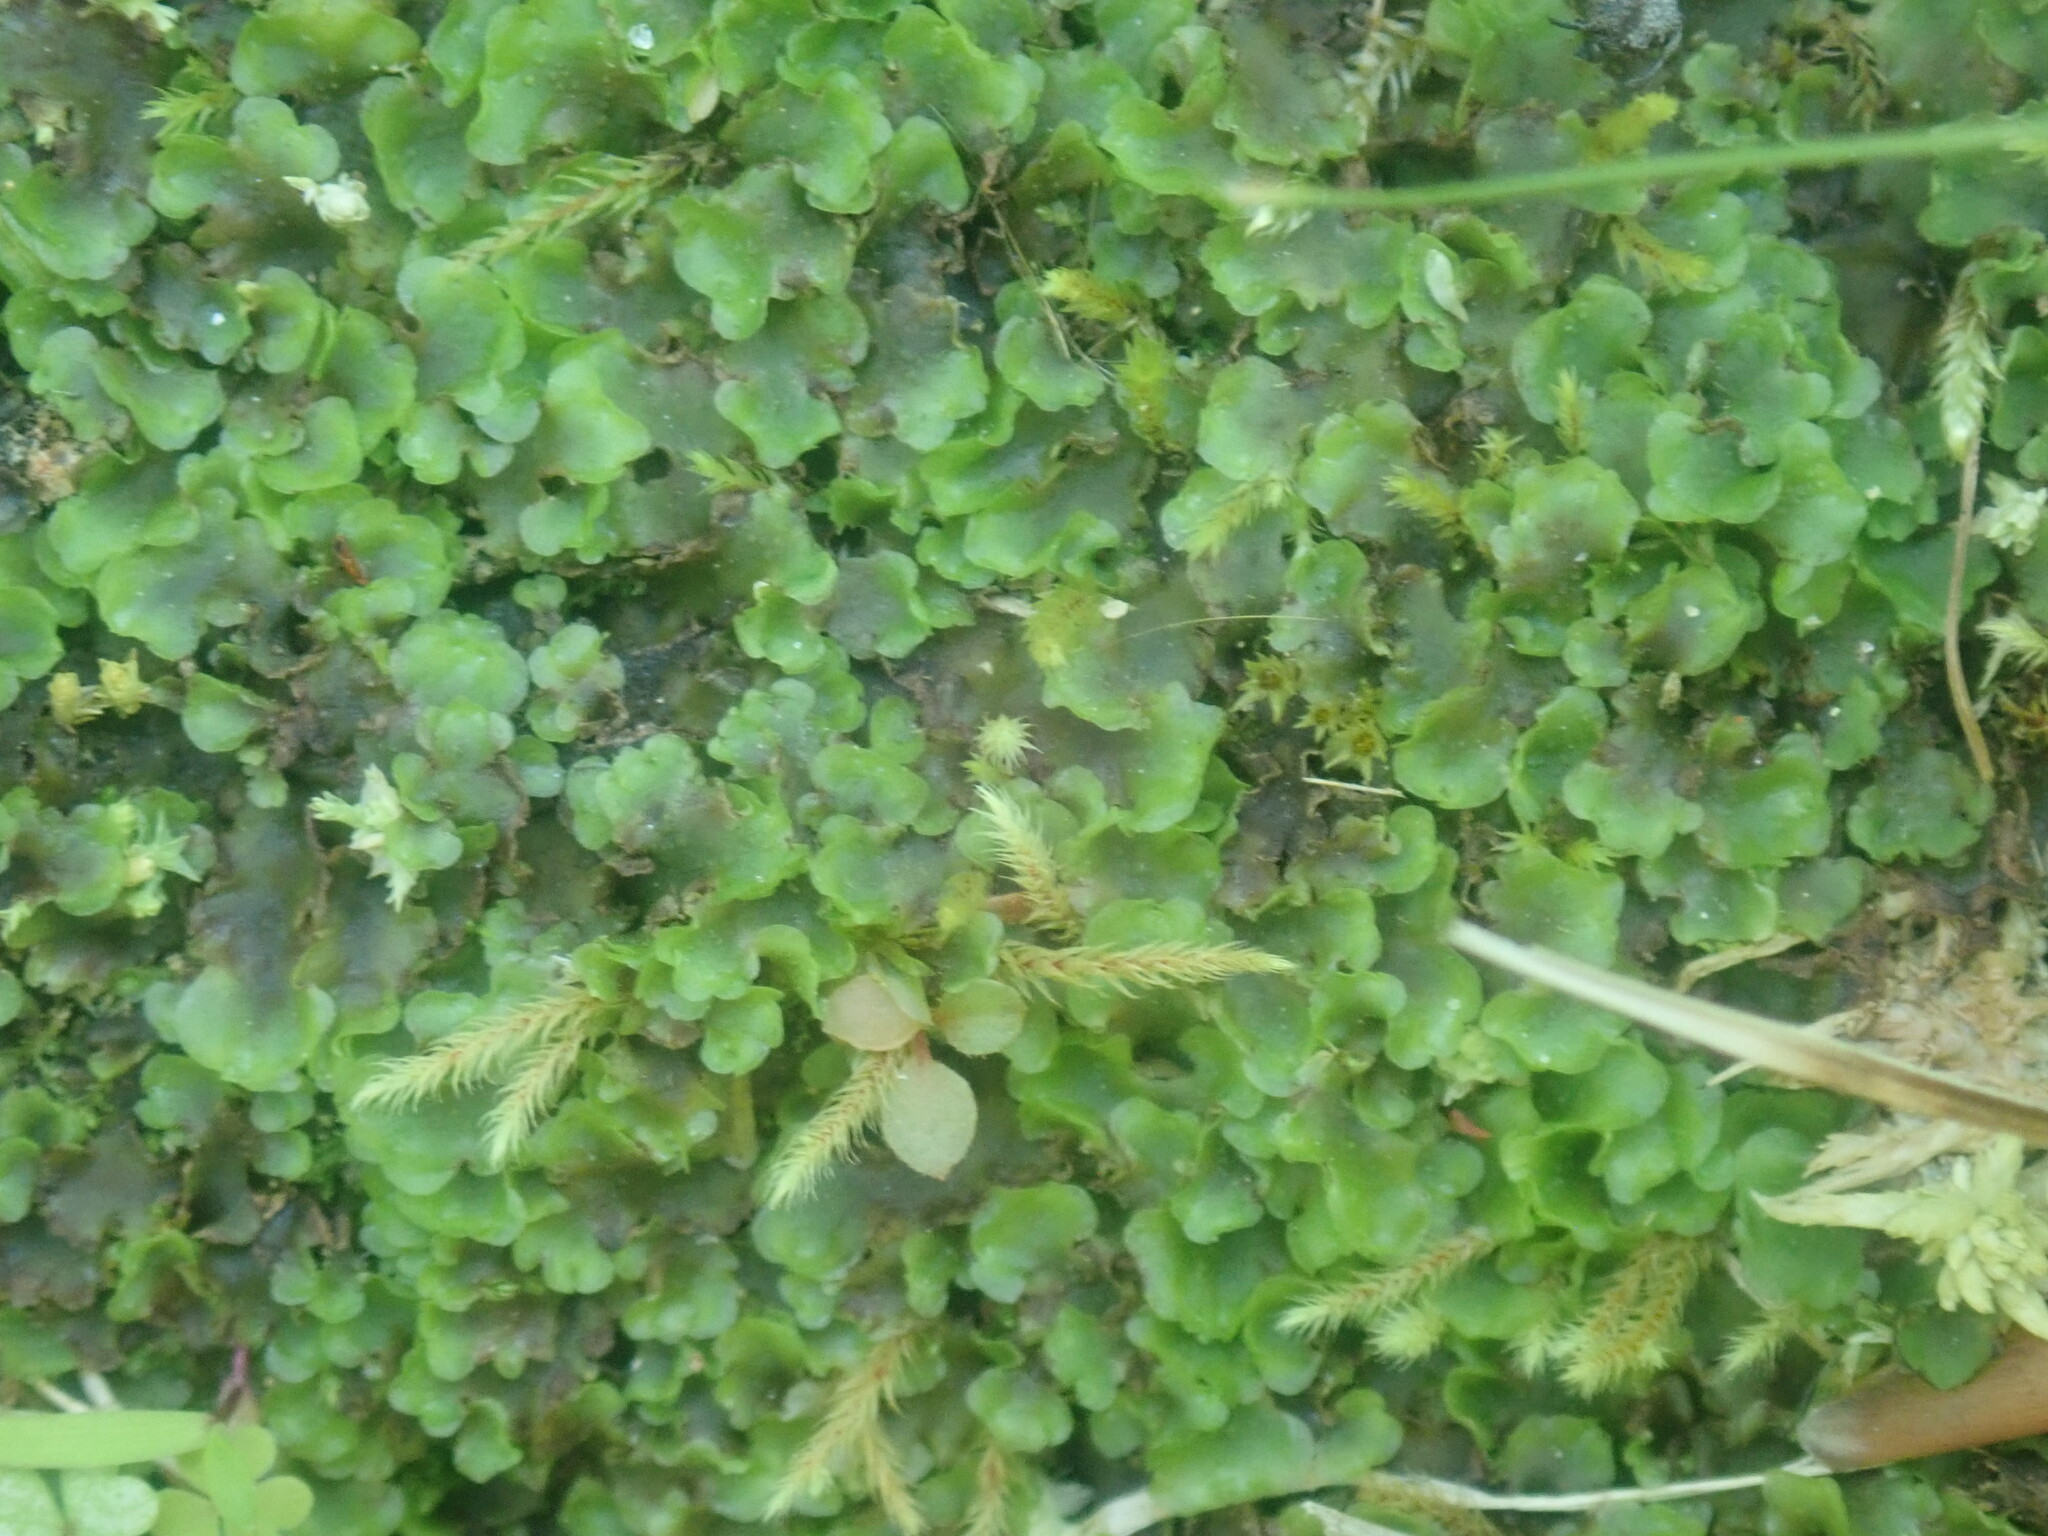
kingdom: Plantae
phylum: Marchantiophyta
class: Jungermanniopsida
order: Pelliales
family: Pelliaceae
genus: Pellia
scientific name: Pellia epiphylla
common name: Common pellia
